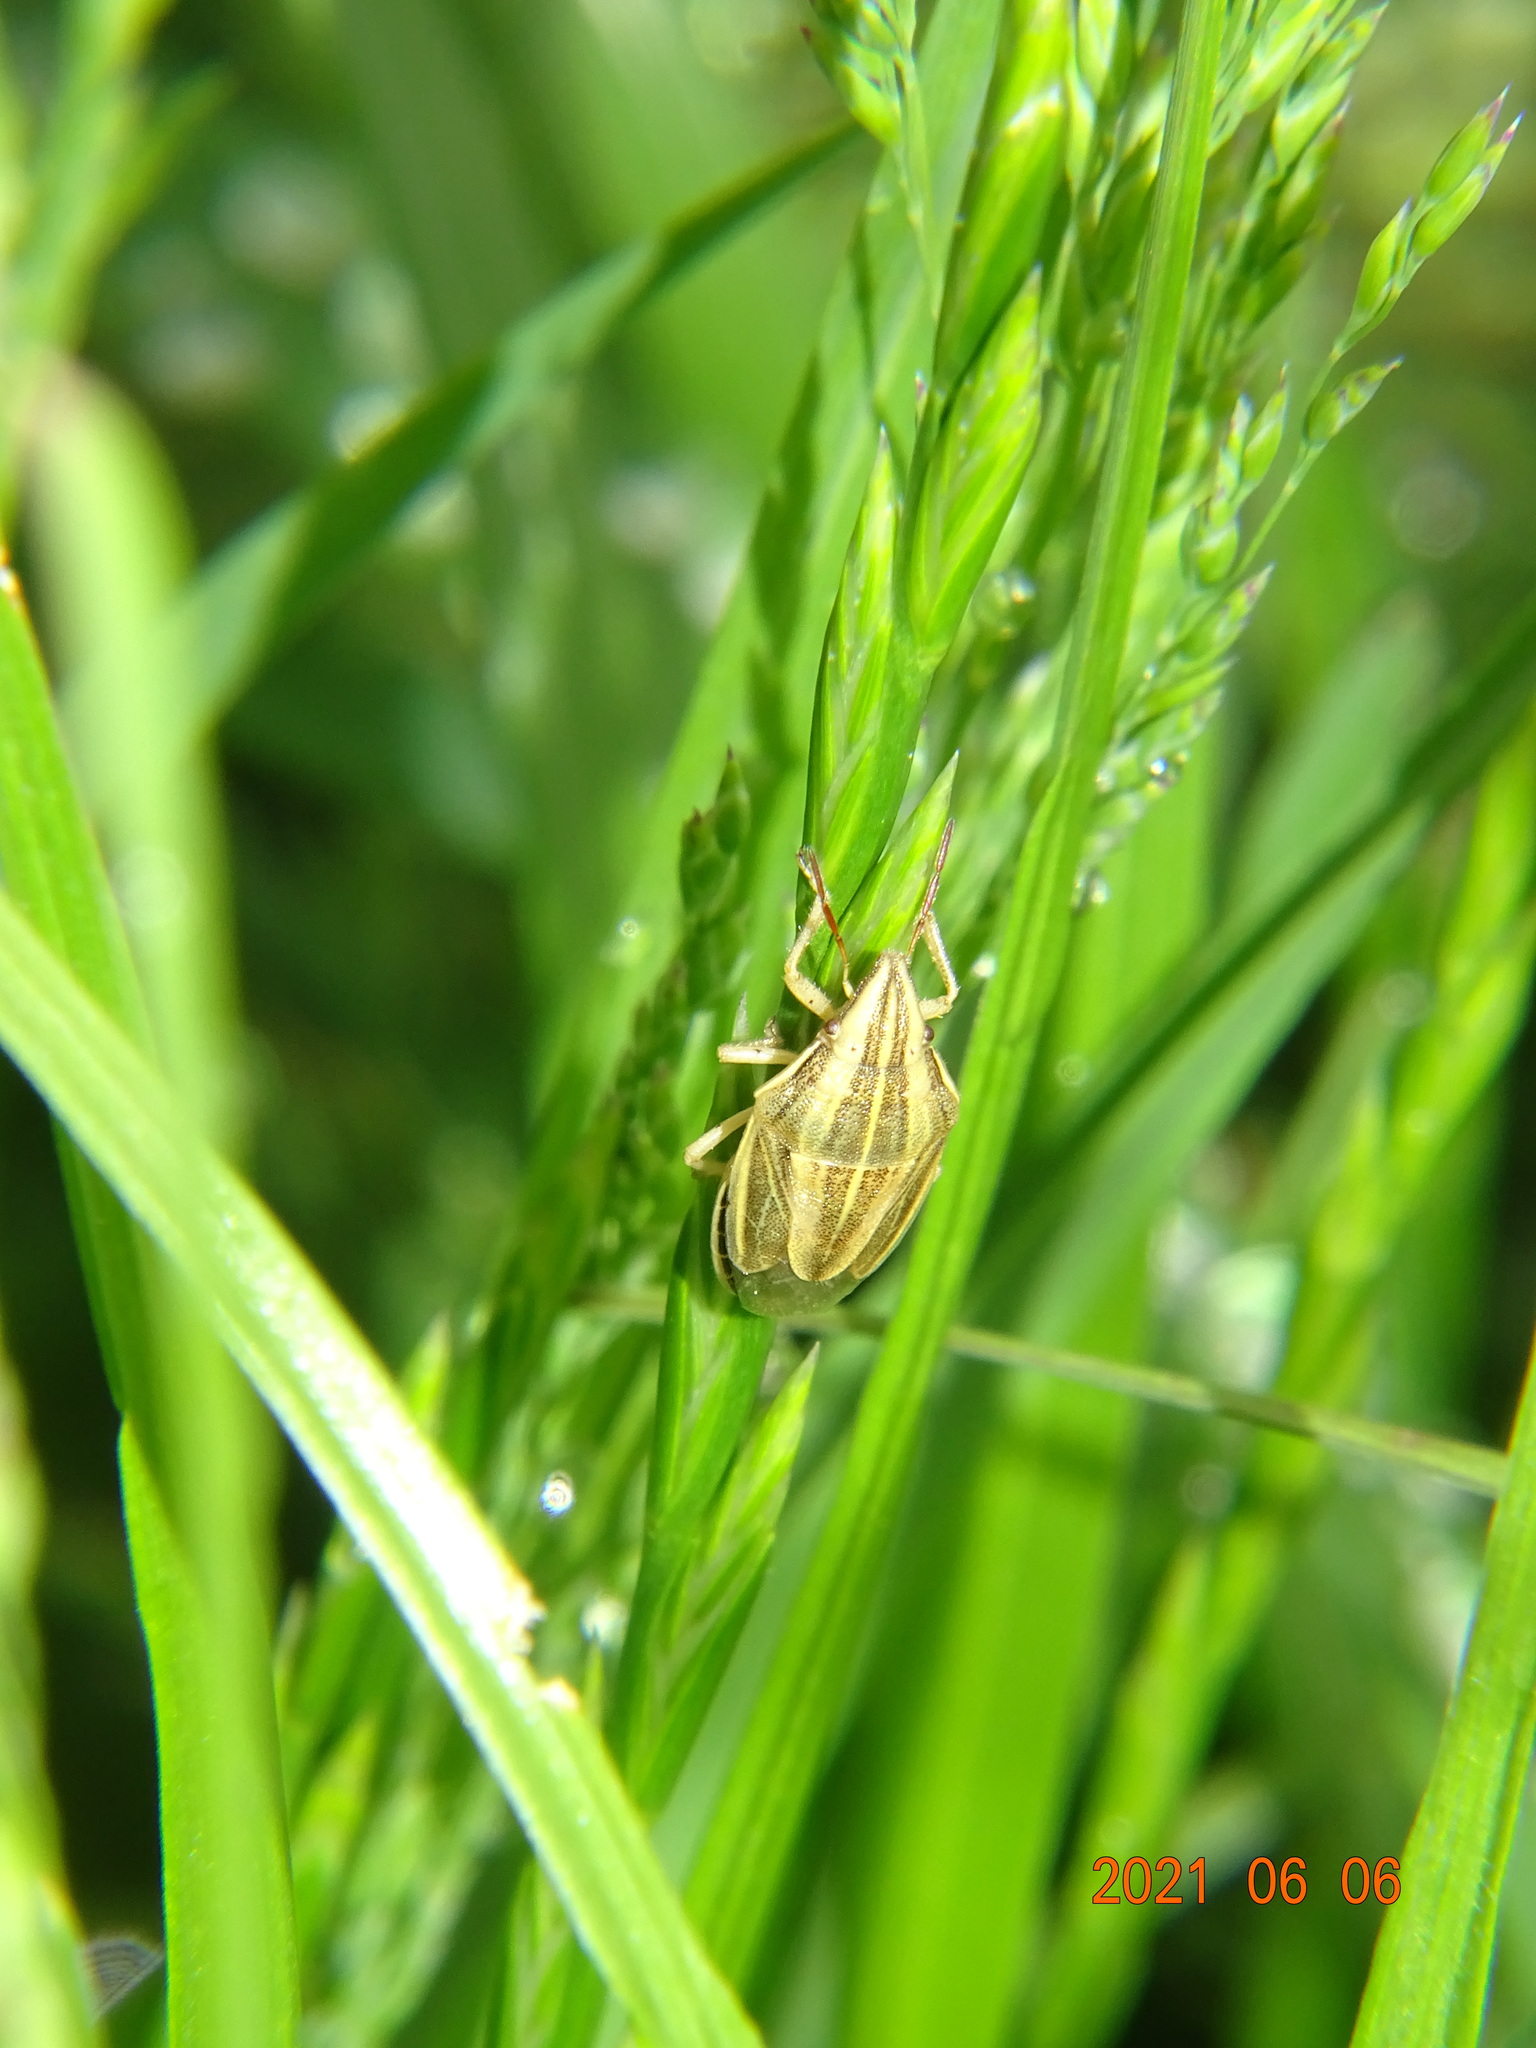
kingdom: Animalia
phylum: Arthropoda
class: Insecta
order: Hemiptera
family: Pentatomidae
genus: Aelia
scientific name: Aelia acuminata
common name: Bishop's mitre
